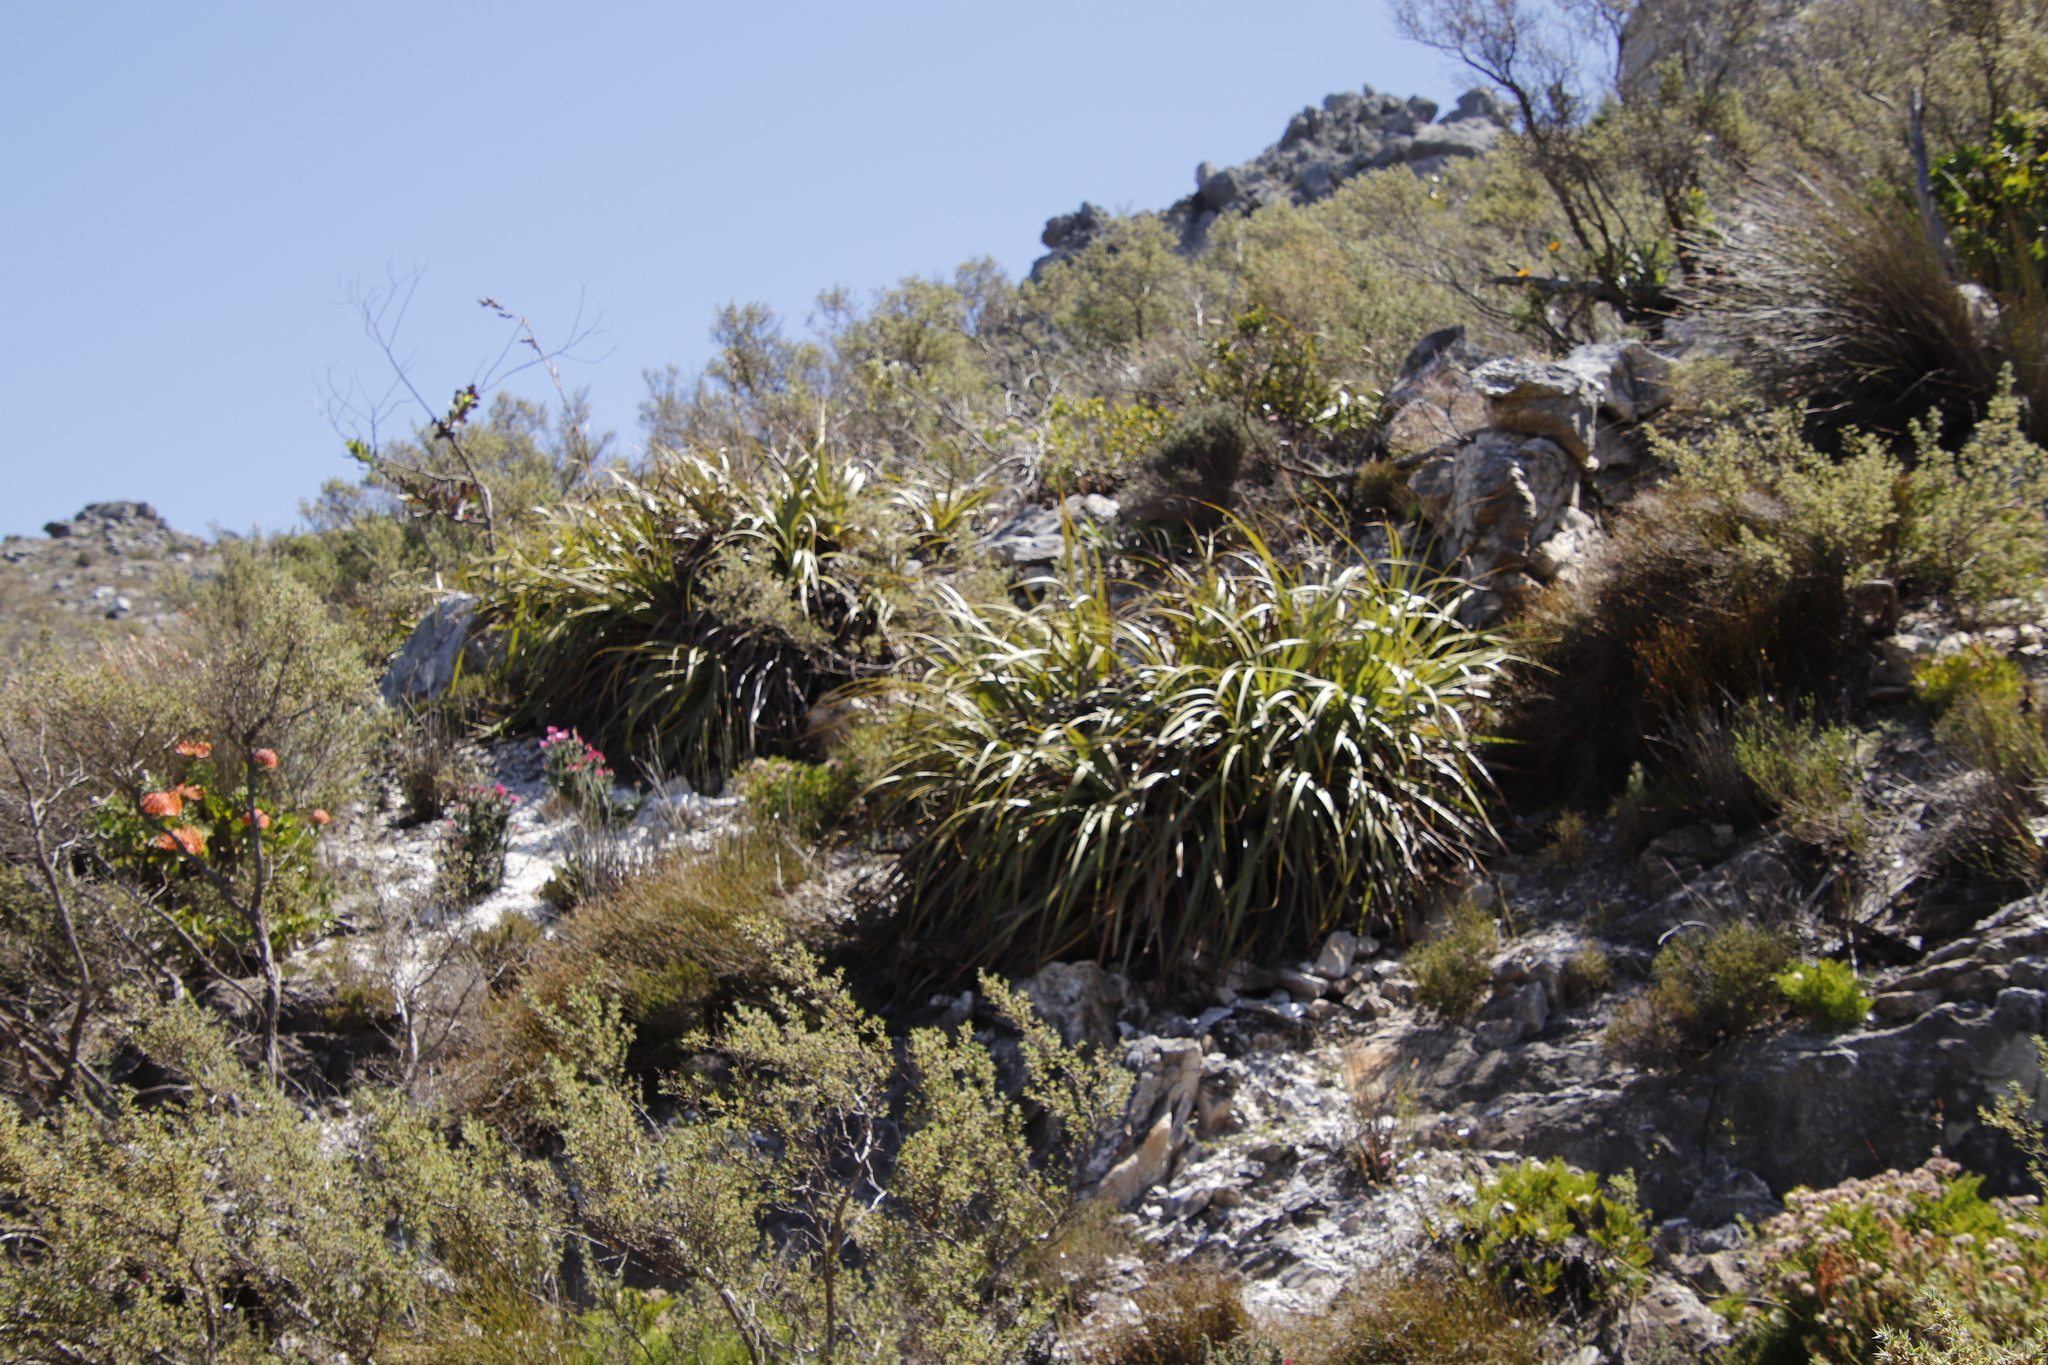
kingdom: Plantae
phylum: Tracheophyta
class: Liliopsida
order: Poales
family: Cyperaceae
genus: Tetraria
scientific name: Tetraria thermalis
